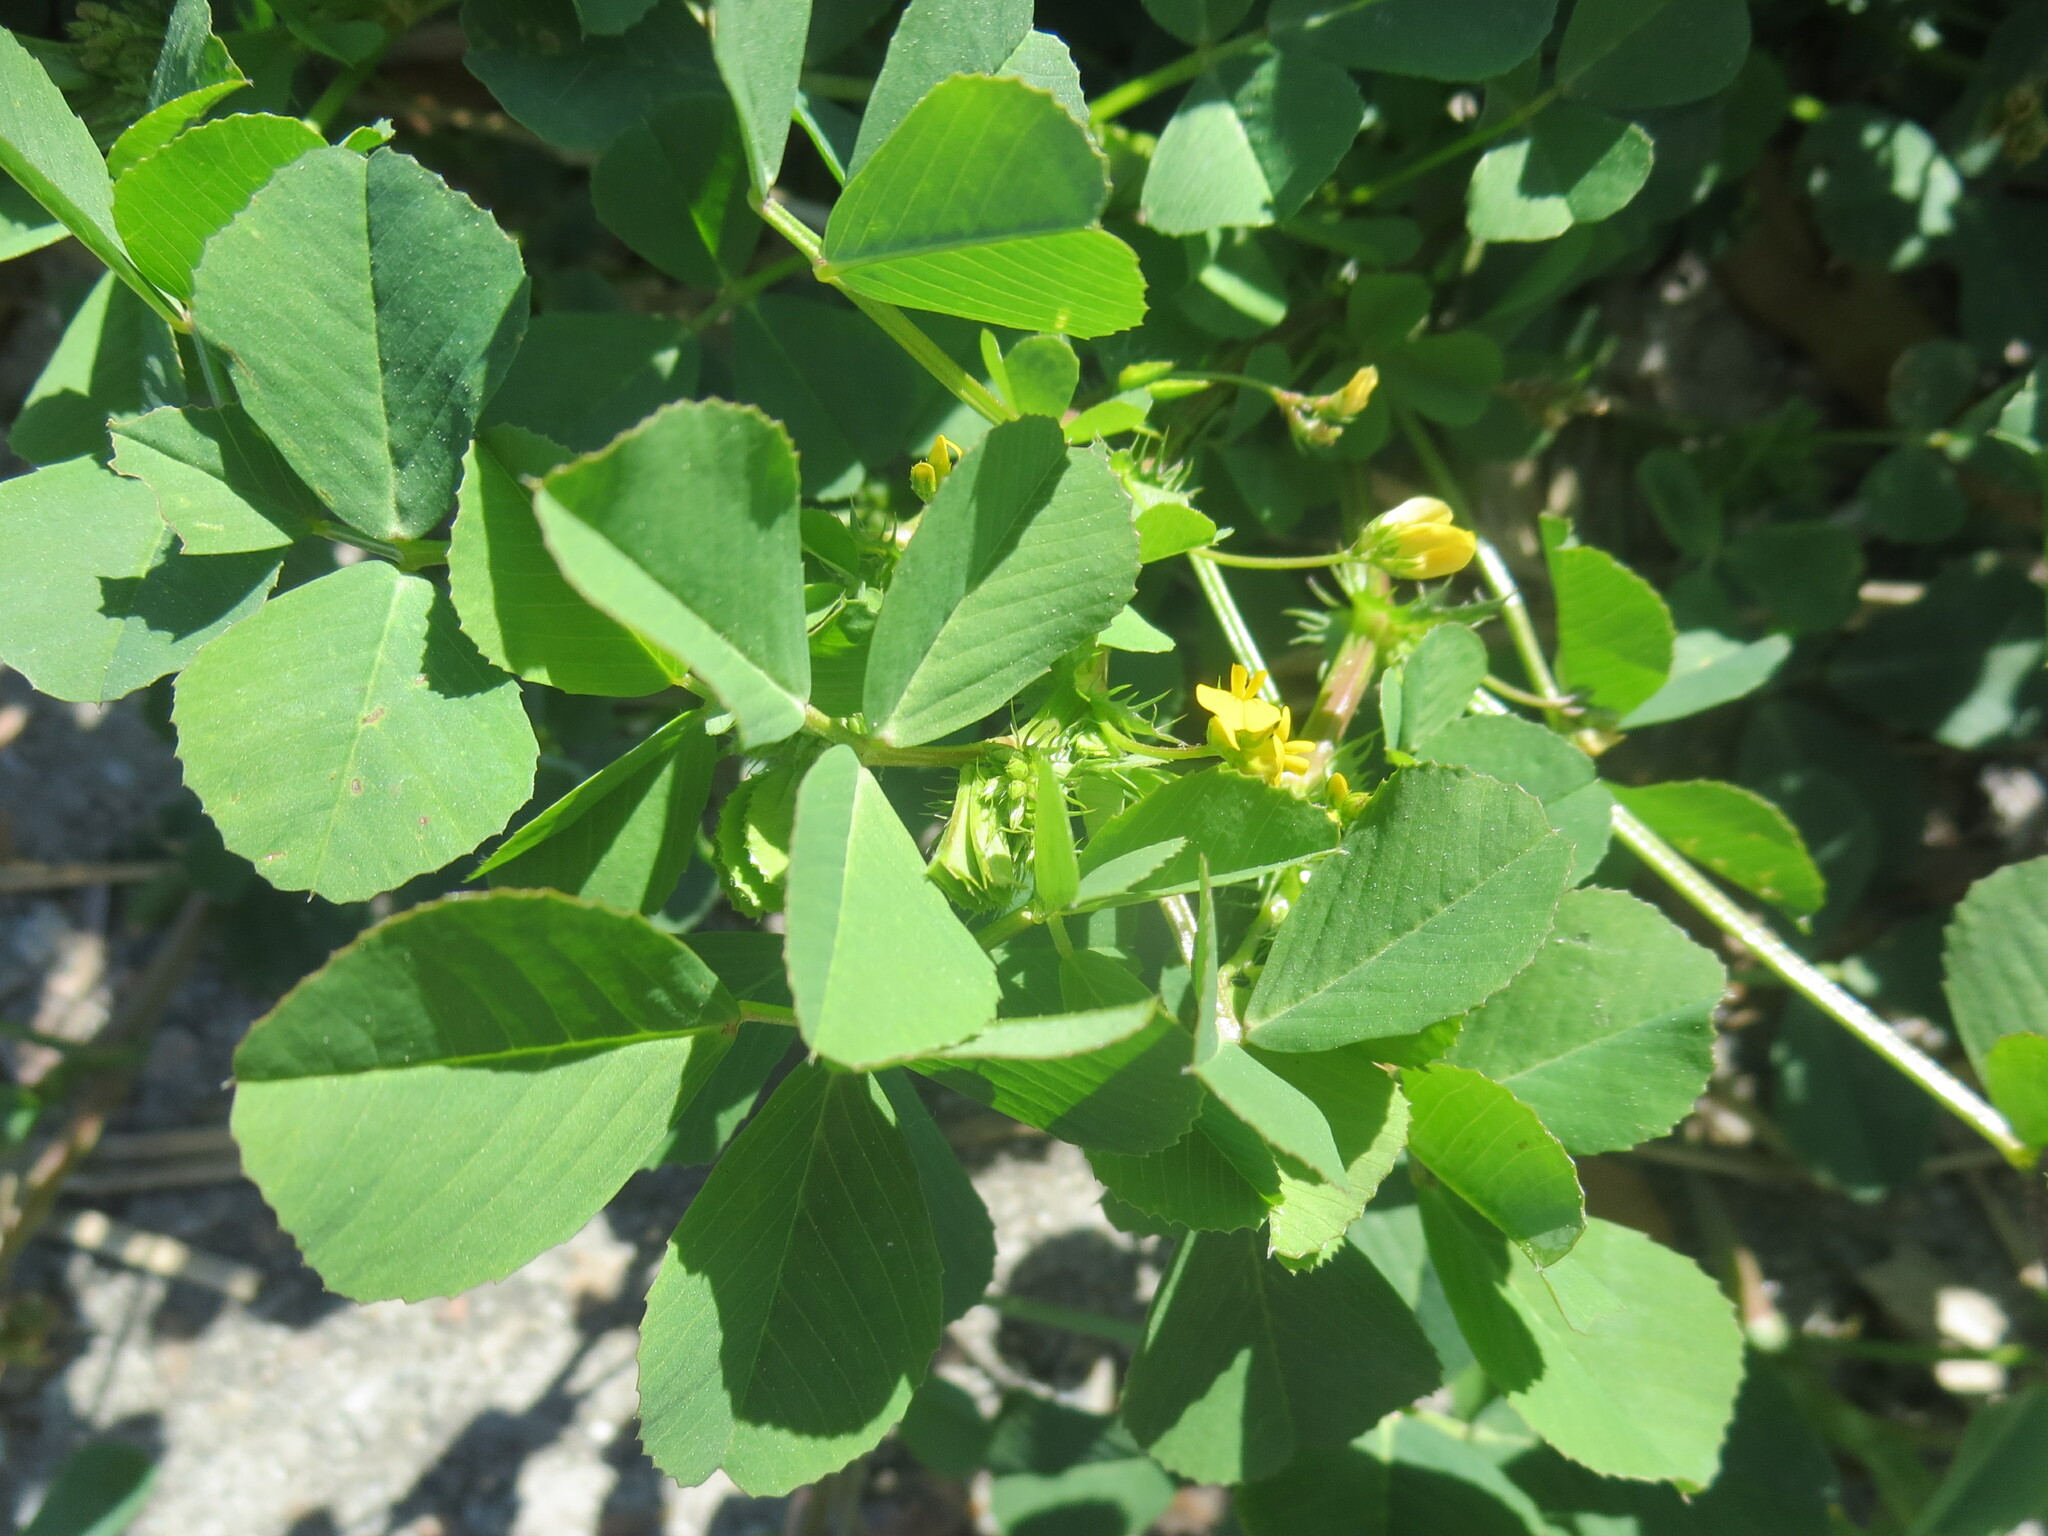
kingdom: Plantae
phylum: Tracheophyta
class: Magnoliopsida
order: Fabales
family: Fabaceae
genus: Medicago
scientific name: Medicago polymorpha
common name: Burclover
